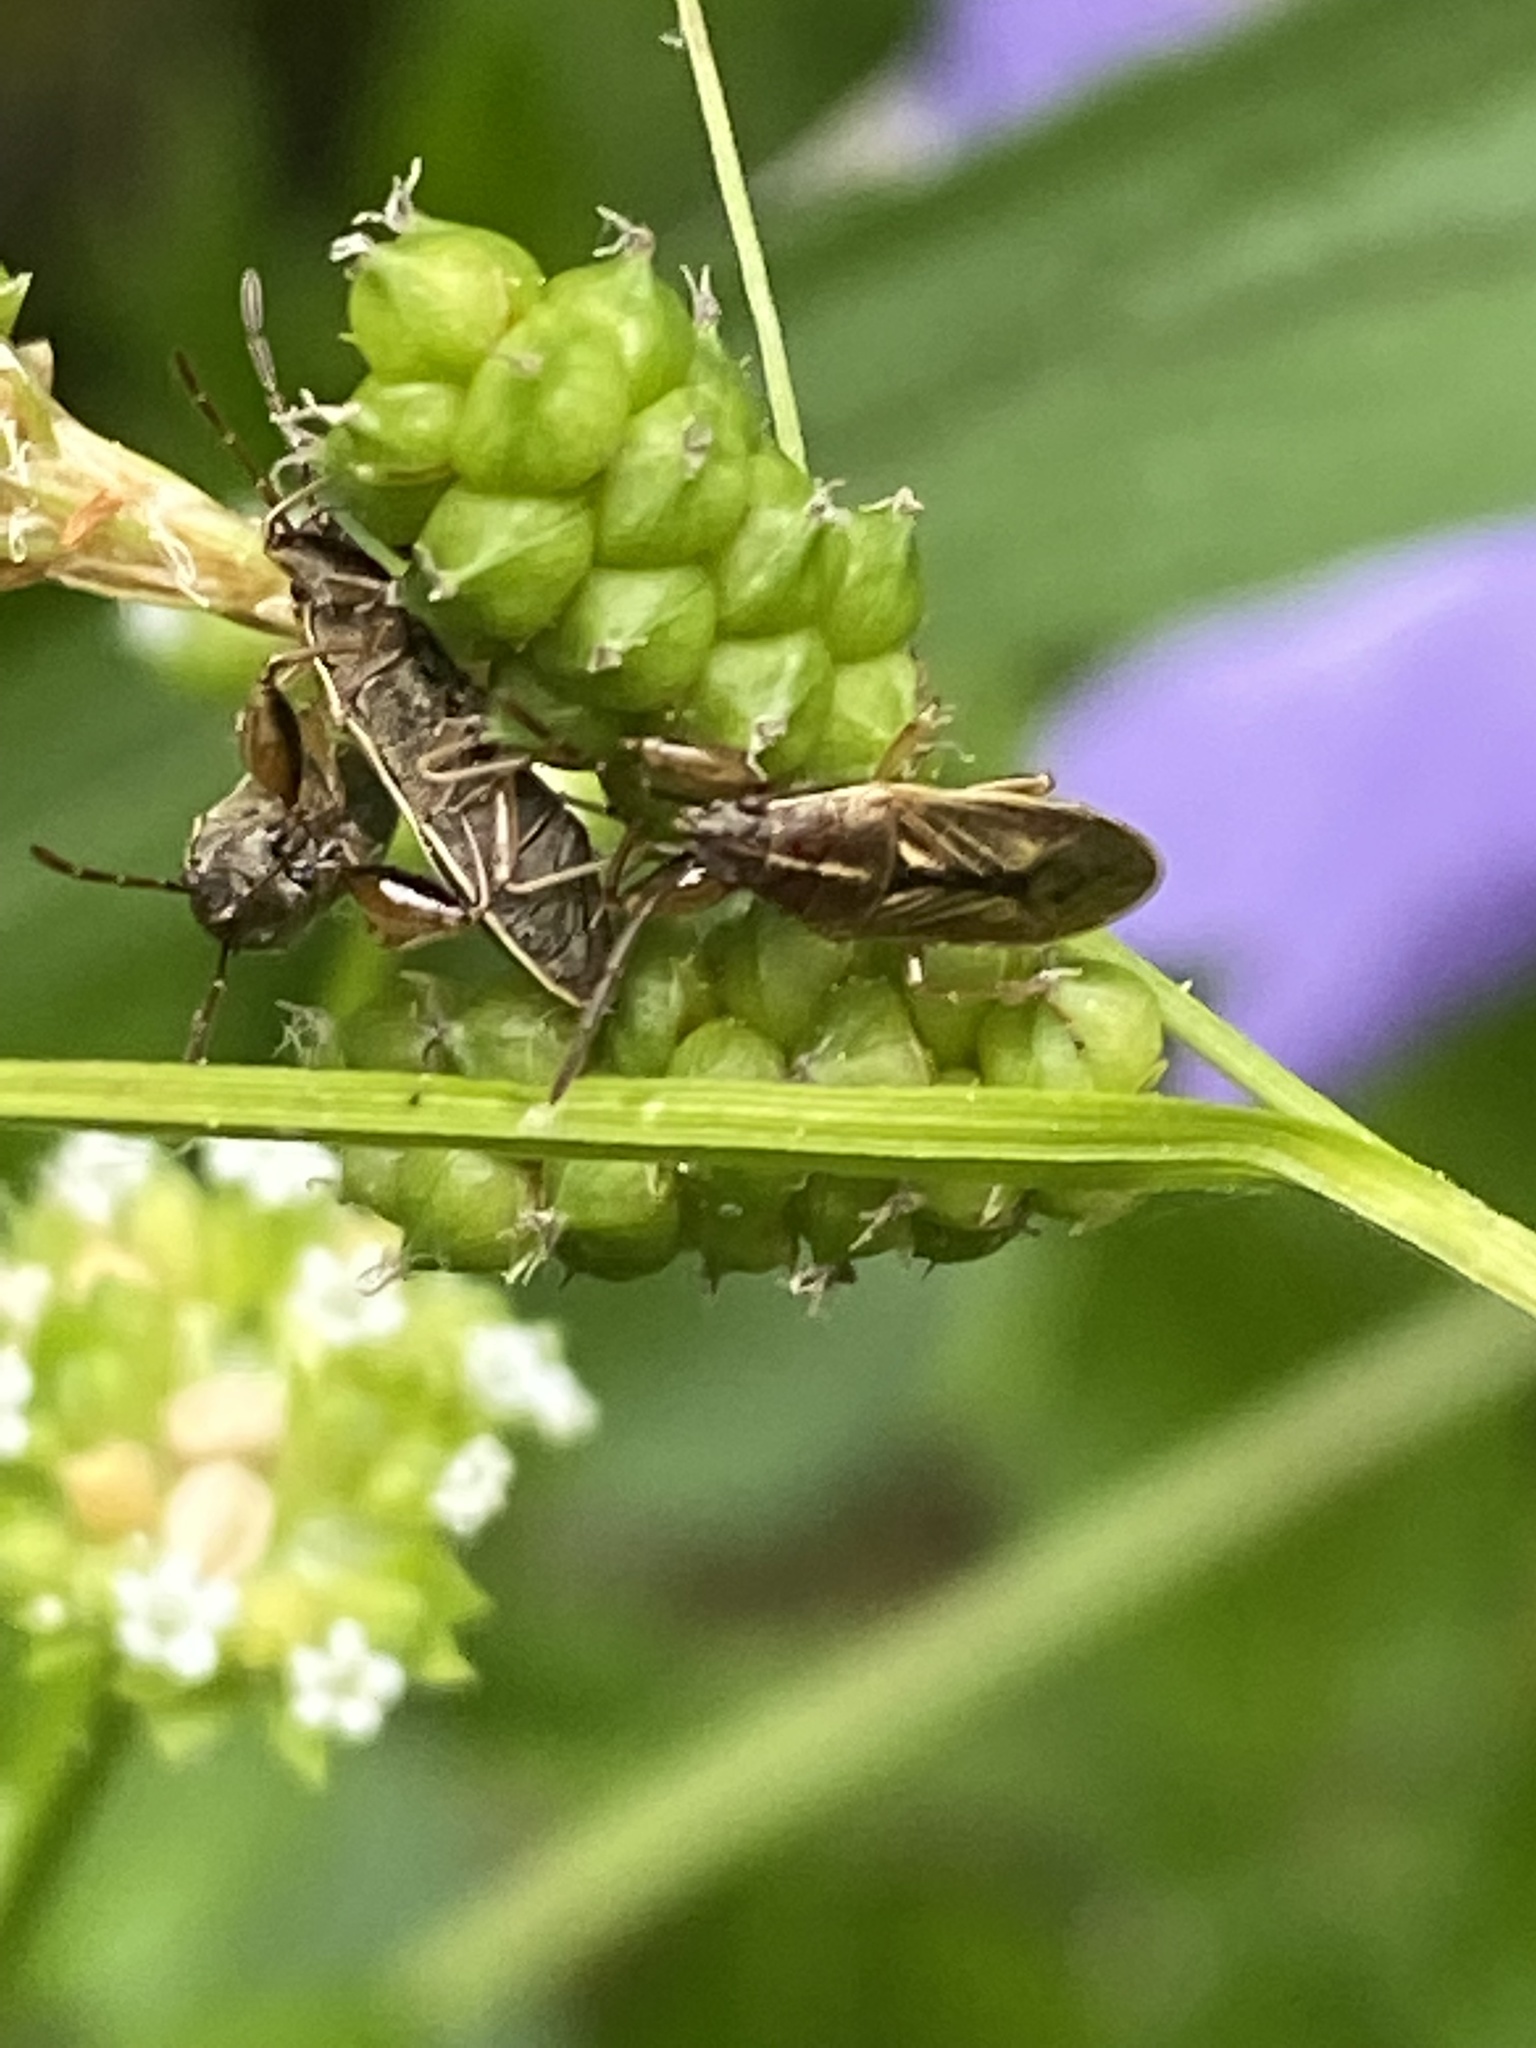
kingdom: Animalia
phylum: Arthropoda
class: Insecta
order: Hemiptera
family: Pachygronthidae
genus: Oedancala
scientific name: Oedancala dorsalis
